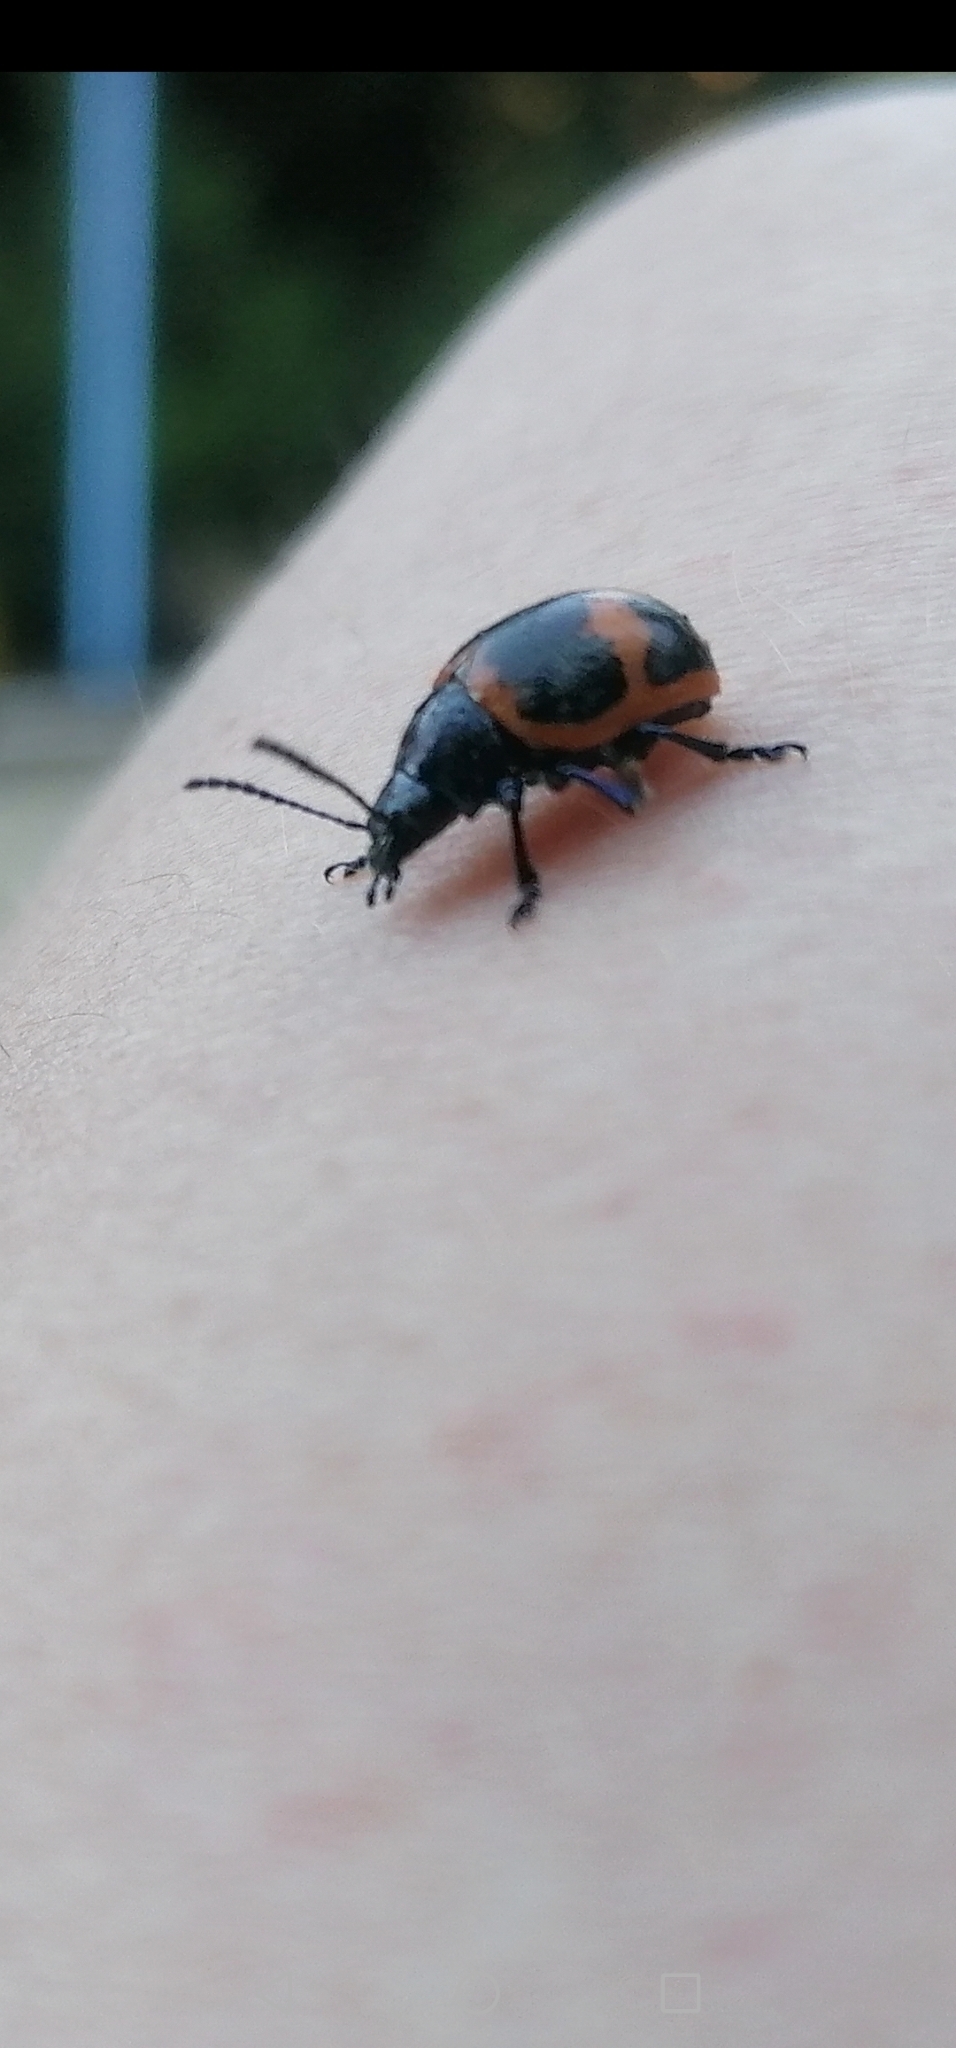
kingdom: Animalia
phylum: Arthropoda
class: Insecta
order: Coleoptera
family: Chrysomelidae
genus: Labidomera
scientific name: Labidomera clivicollis
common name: Swamp milkweed leaf beetle
